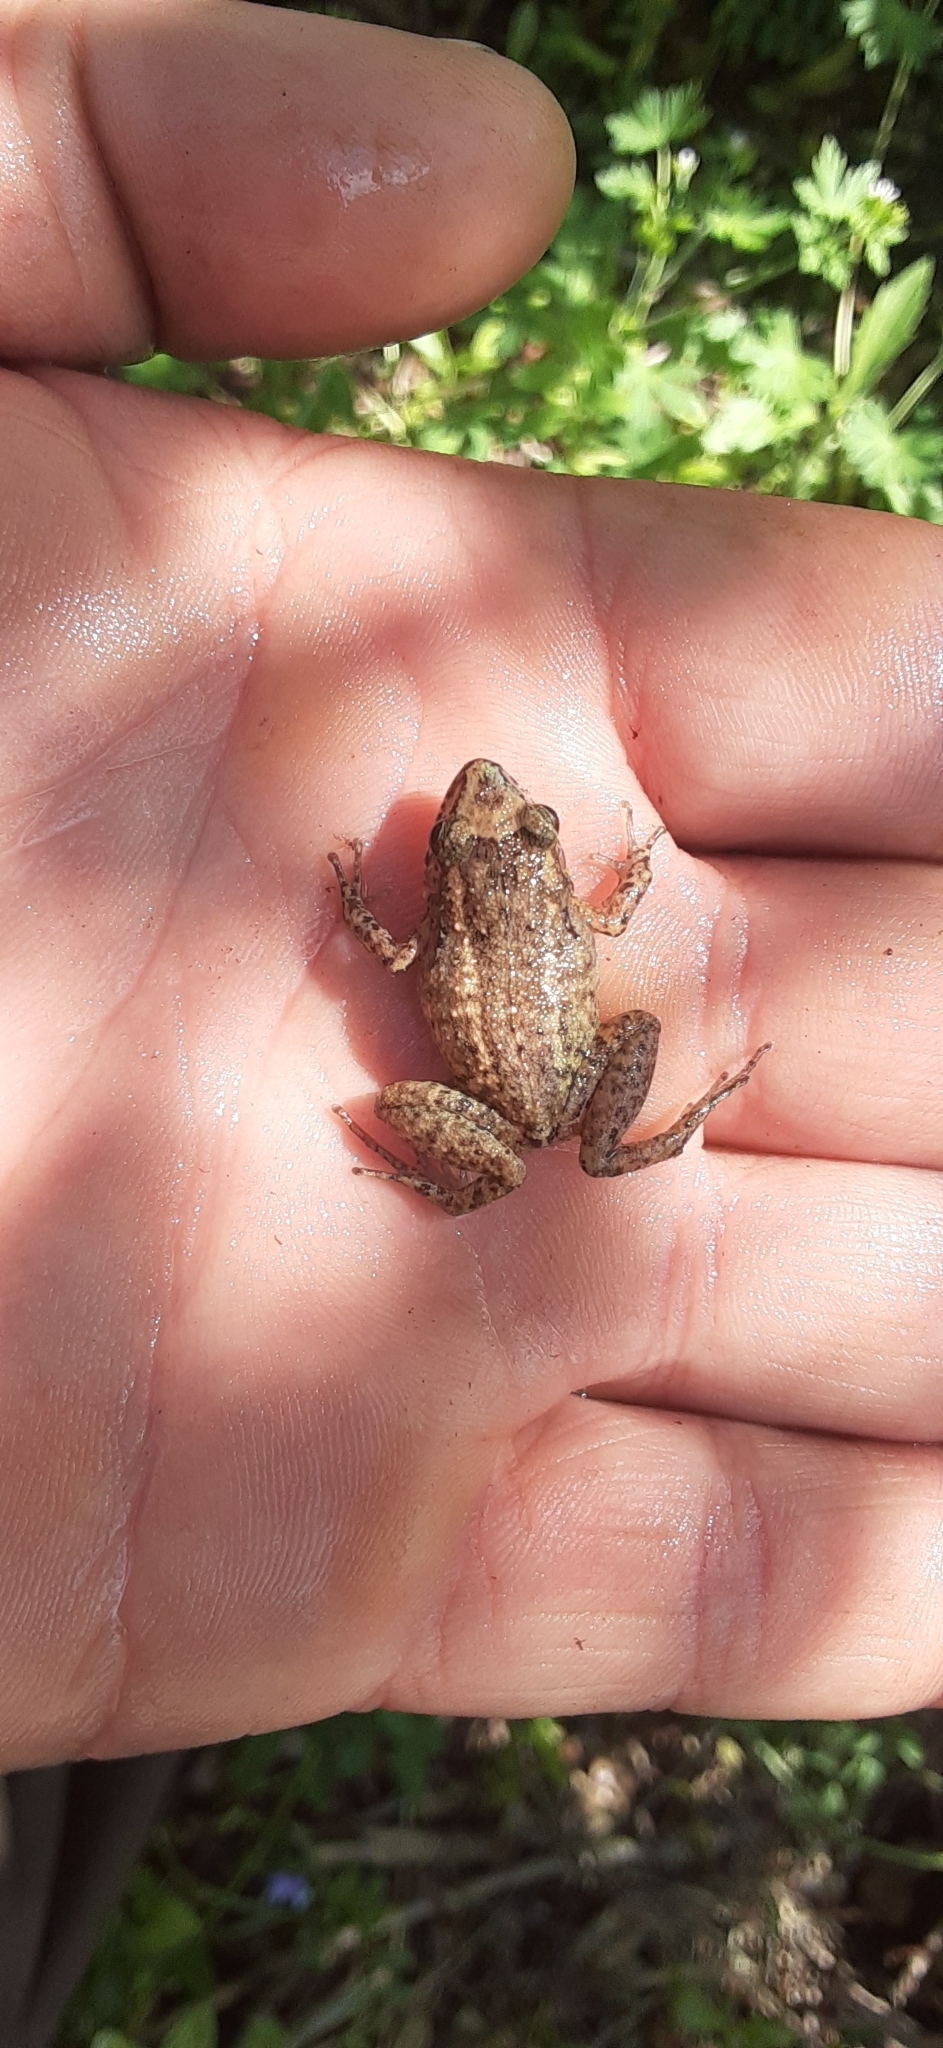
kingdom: Animalia
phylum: Chordata
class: Amphibia
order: Anura
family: Eleutherodactylidae
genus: Eleutherodactylus
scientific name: Eleutherodactylus planirostris
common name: Greenhouse frog
